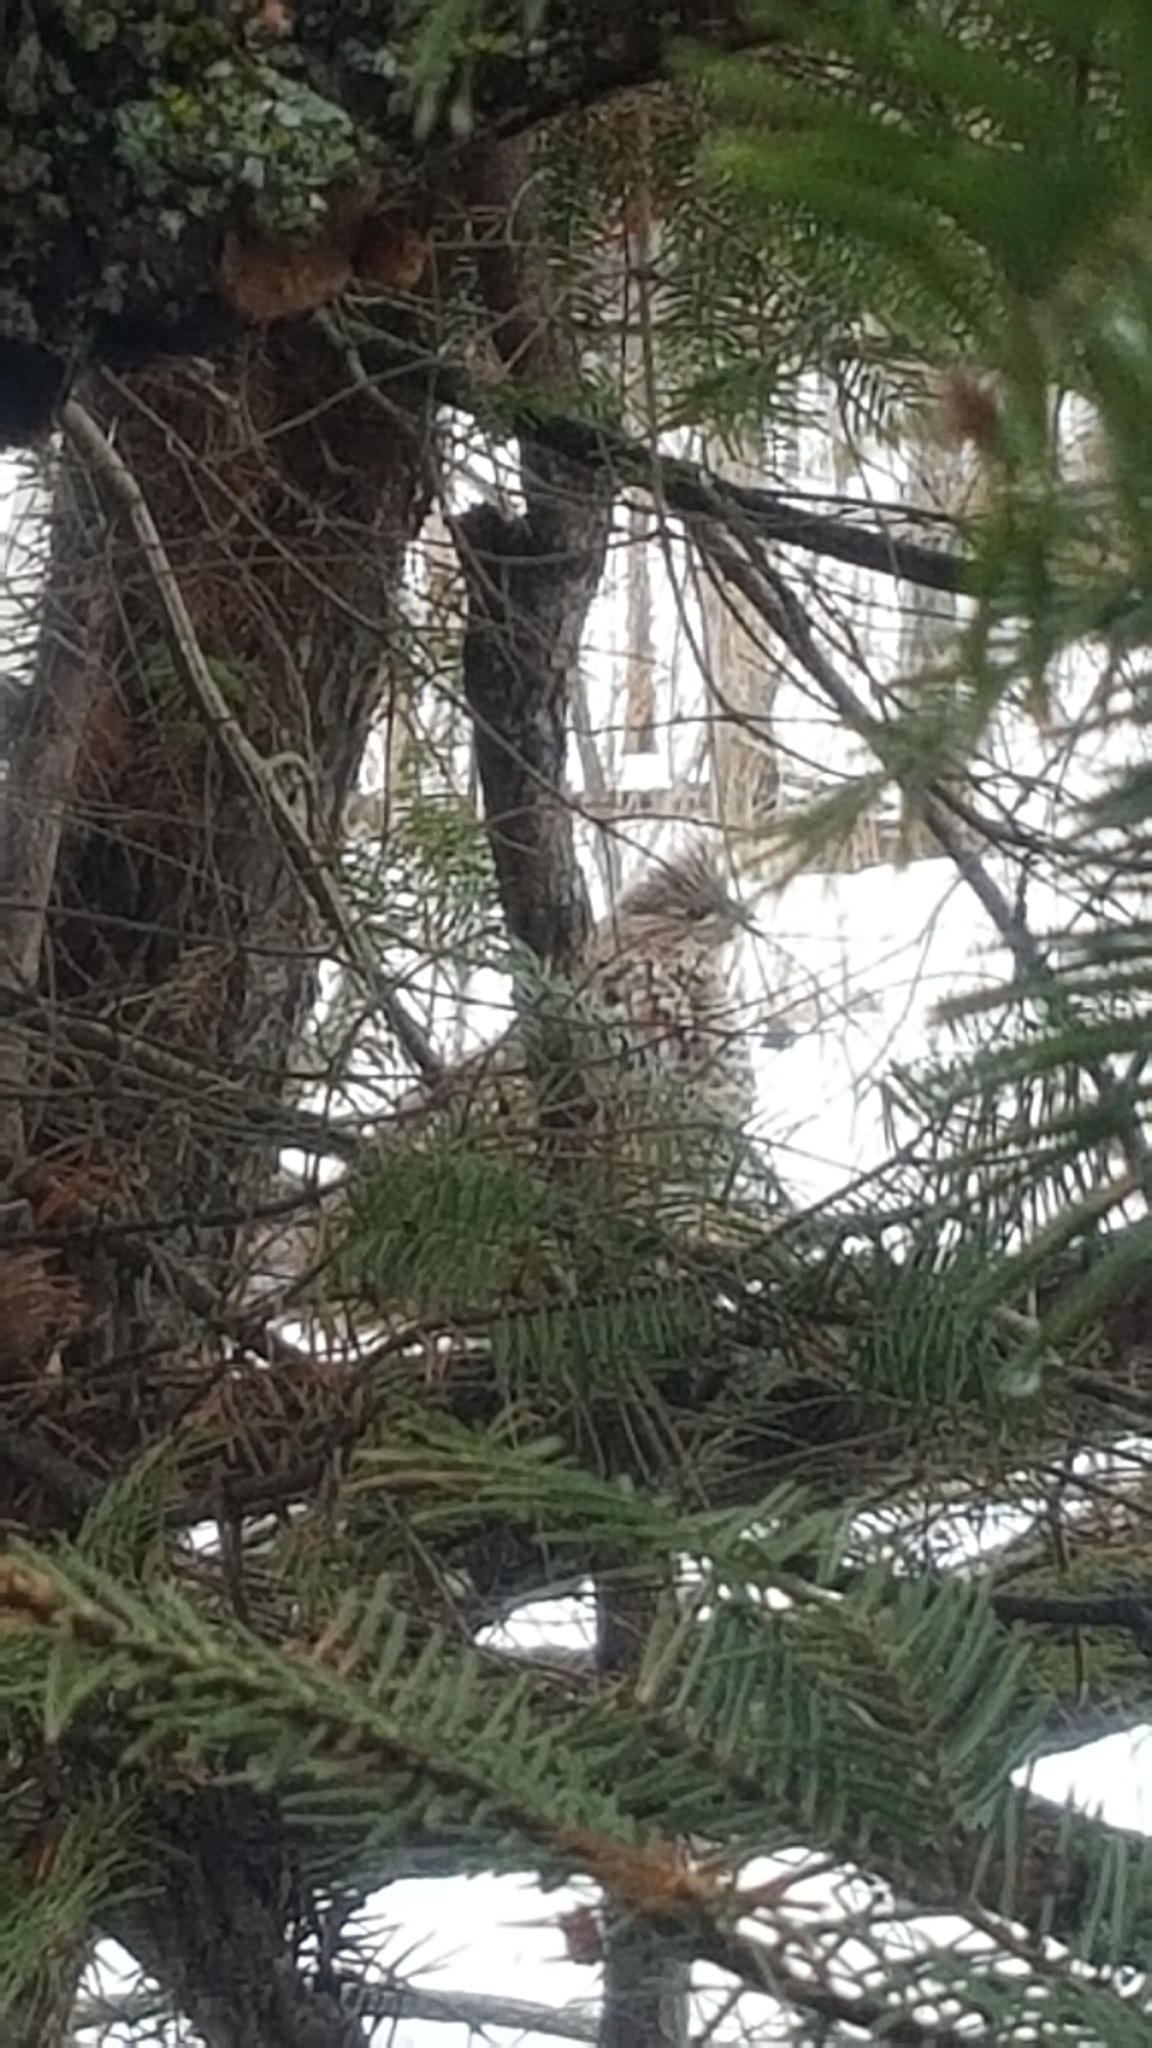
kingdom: Animalia
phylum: Chordata
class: Aves
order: Galliformes
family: Phasianidae
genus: Bonasa
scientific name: Bonasa umbellus
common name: Ruffed grouse
